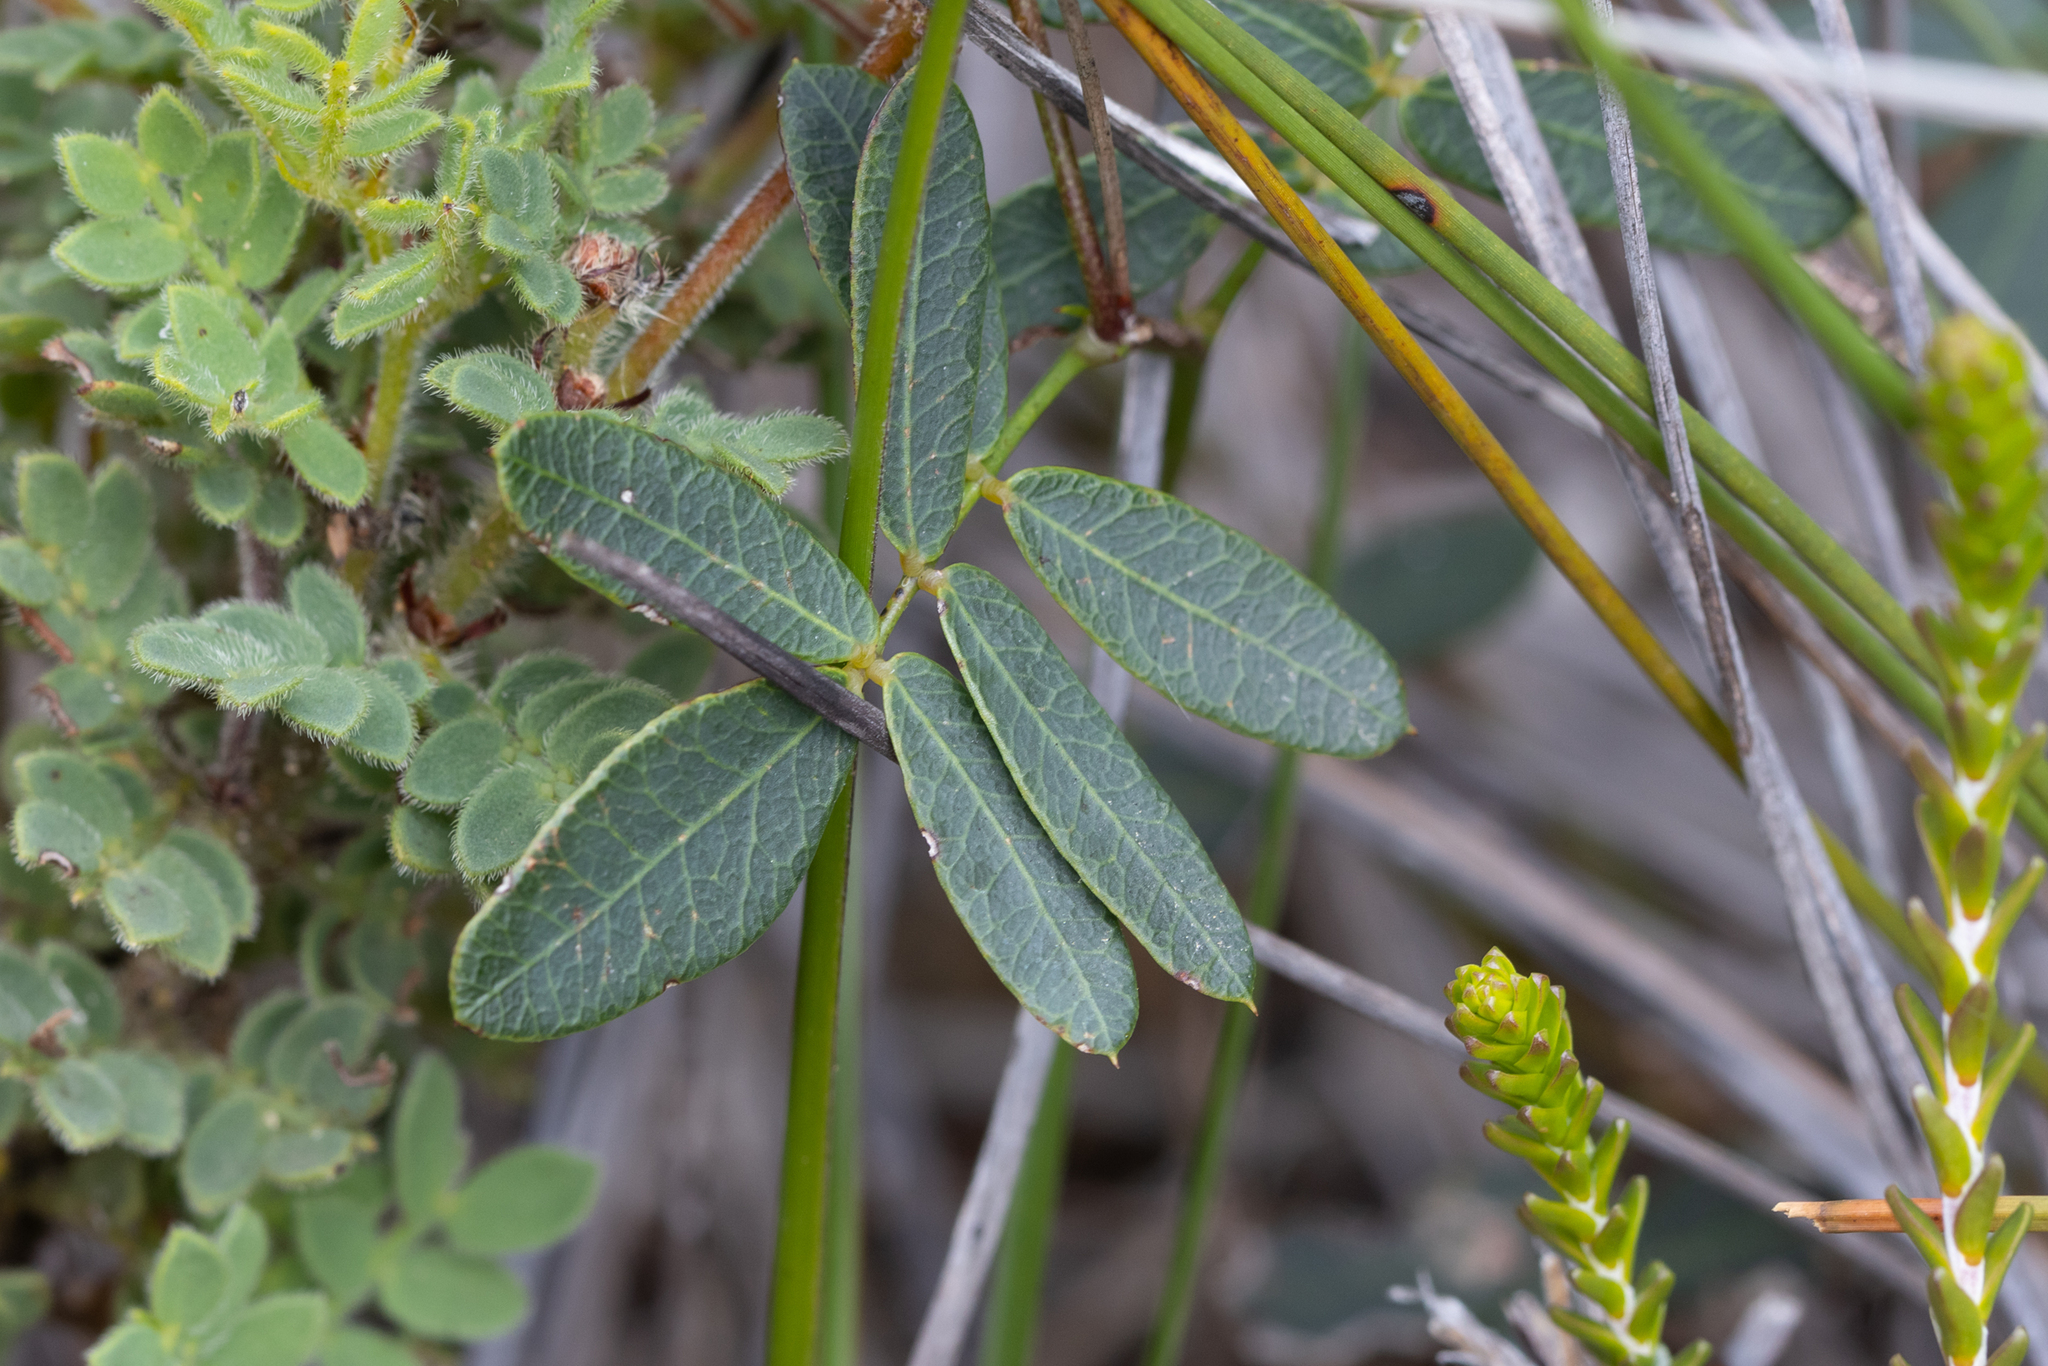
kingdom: Plantae
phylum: Tracheophyta
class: Magnoliopsida
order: Fabales
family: Fabaceae
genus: Gompholobium
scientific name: Gompholobium knightianum
